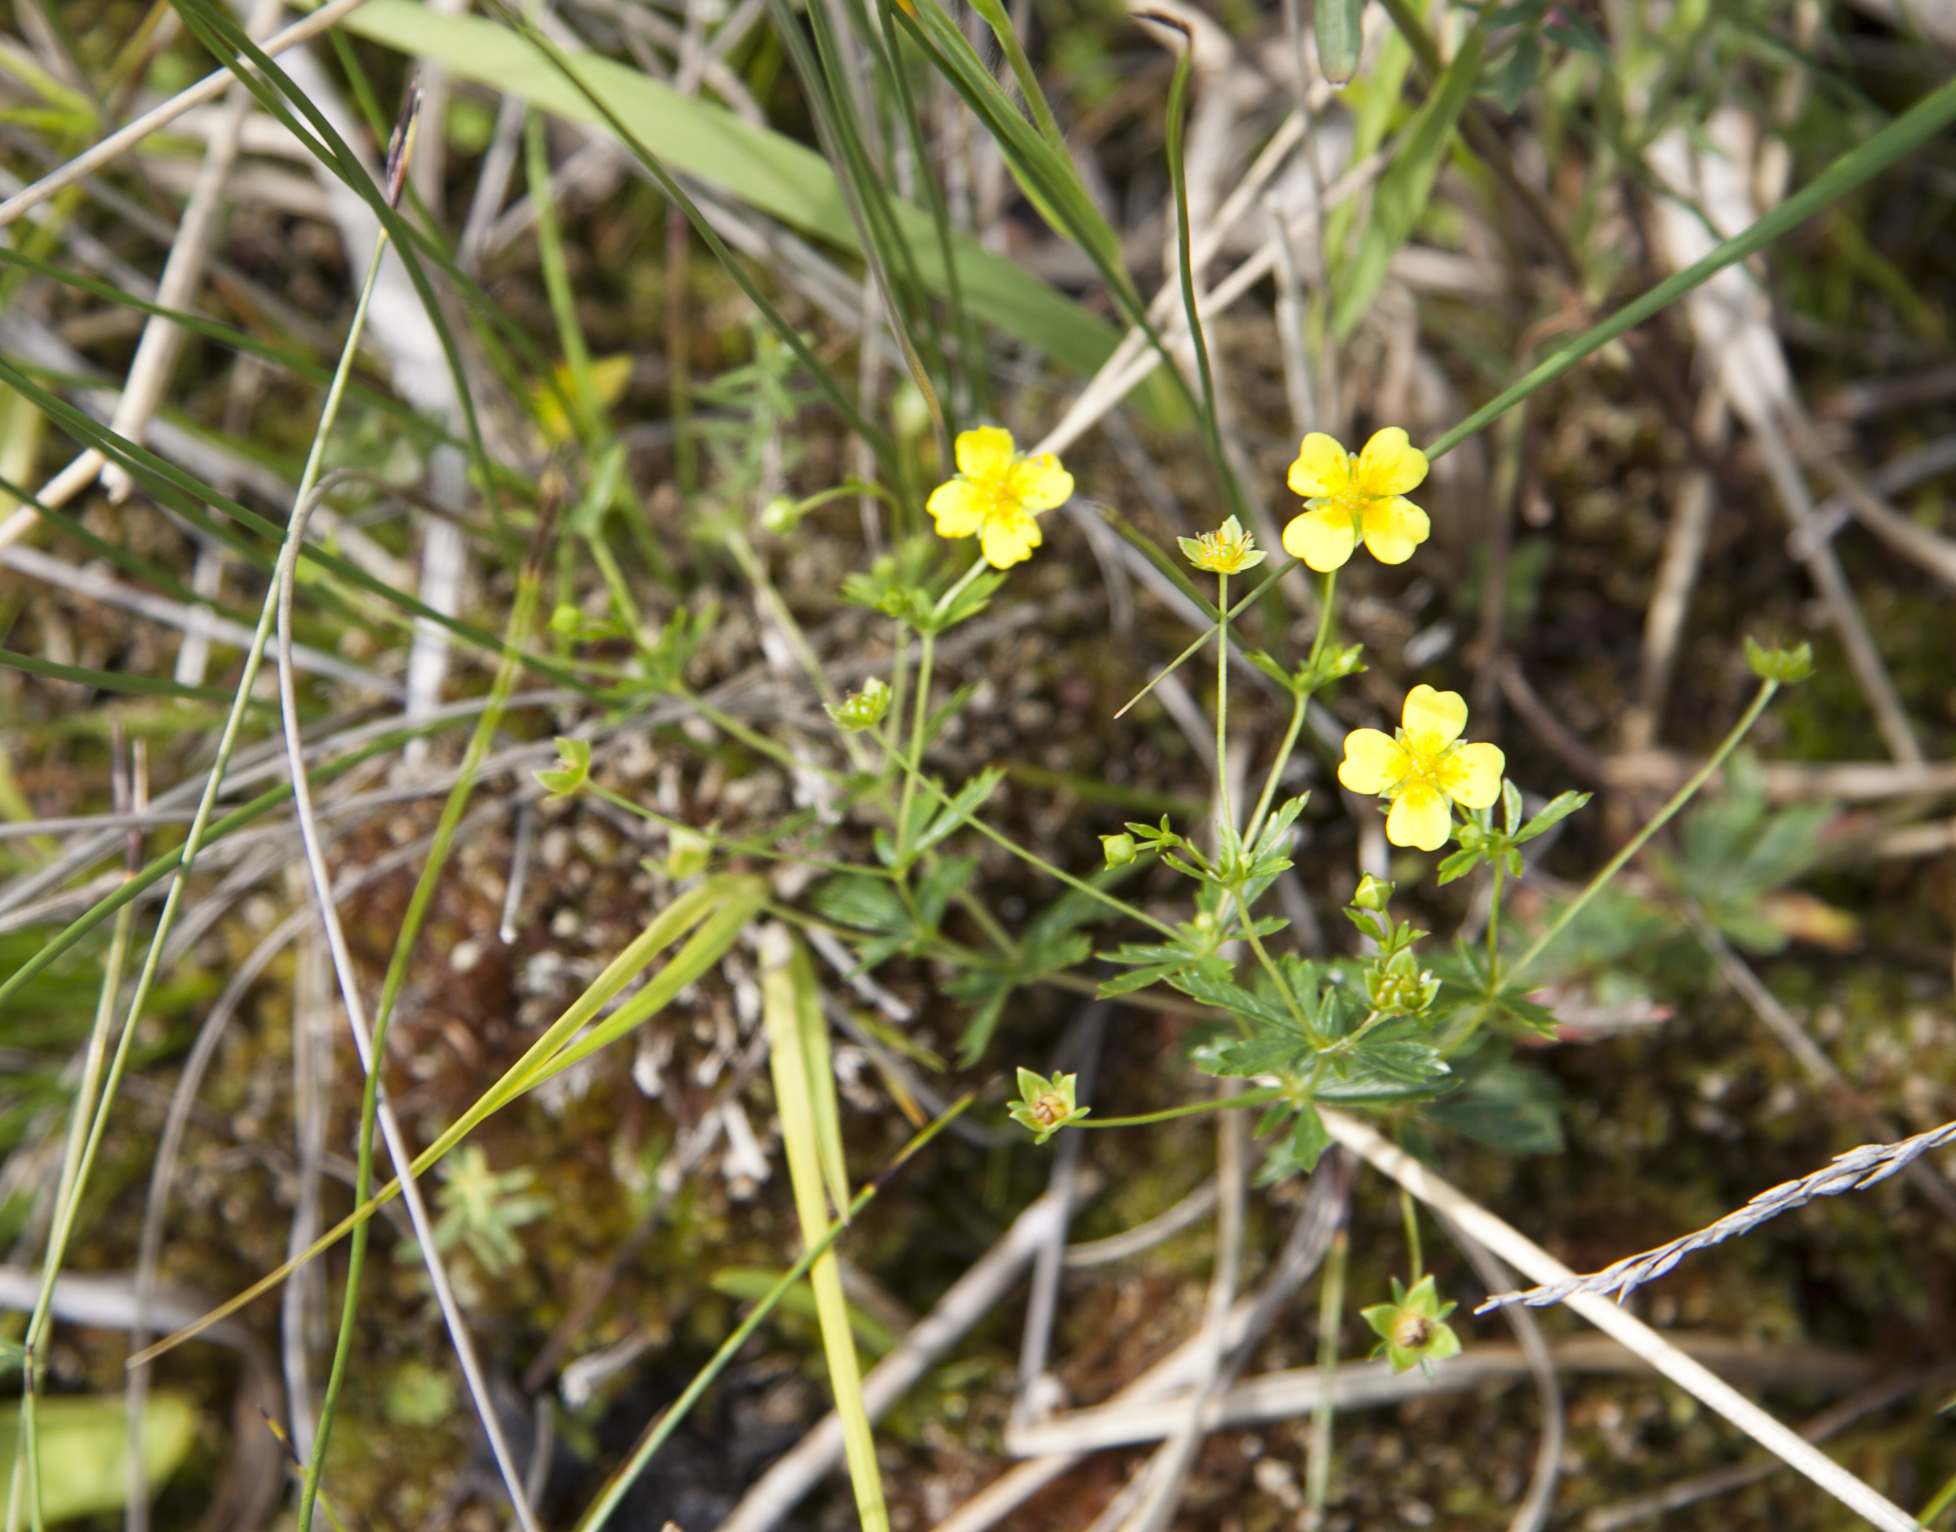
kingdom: Plantae
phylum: Tracheophyta
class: Magnoliopsida
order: Rosales
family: Rosaceae
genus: Potentilla
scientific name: Potentilla erecta
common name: Tormentil
